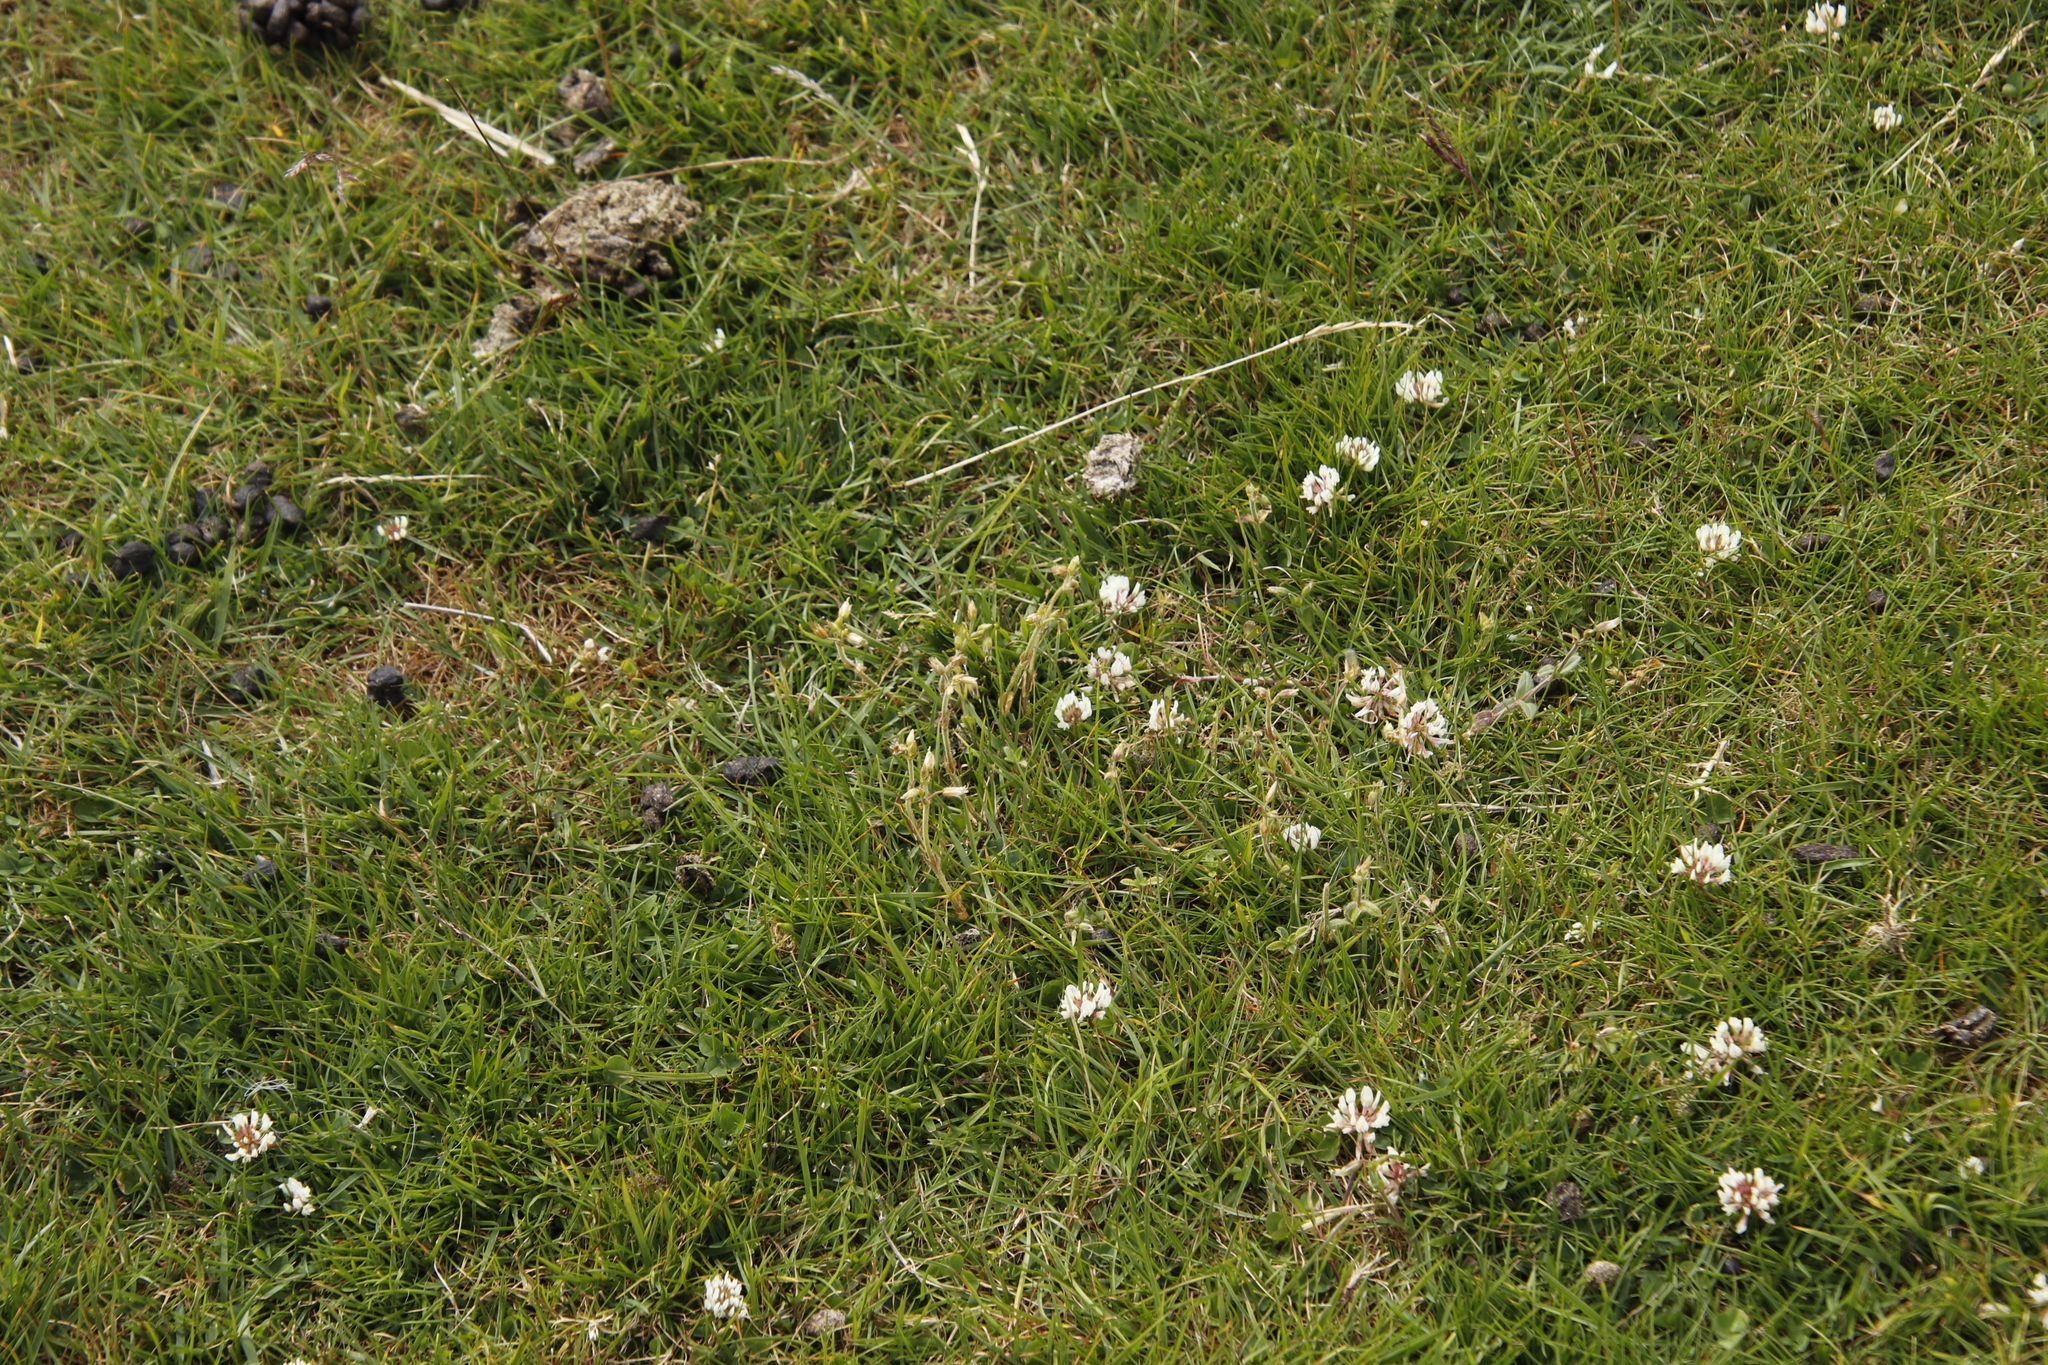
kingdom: Plantae
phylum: Tracheophyta
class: Magnoliopsida
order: Fabales
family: Fabaceae
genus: Trifolium
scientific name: Trifolium repens
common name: White clover
